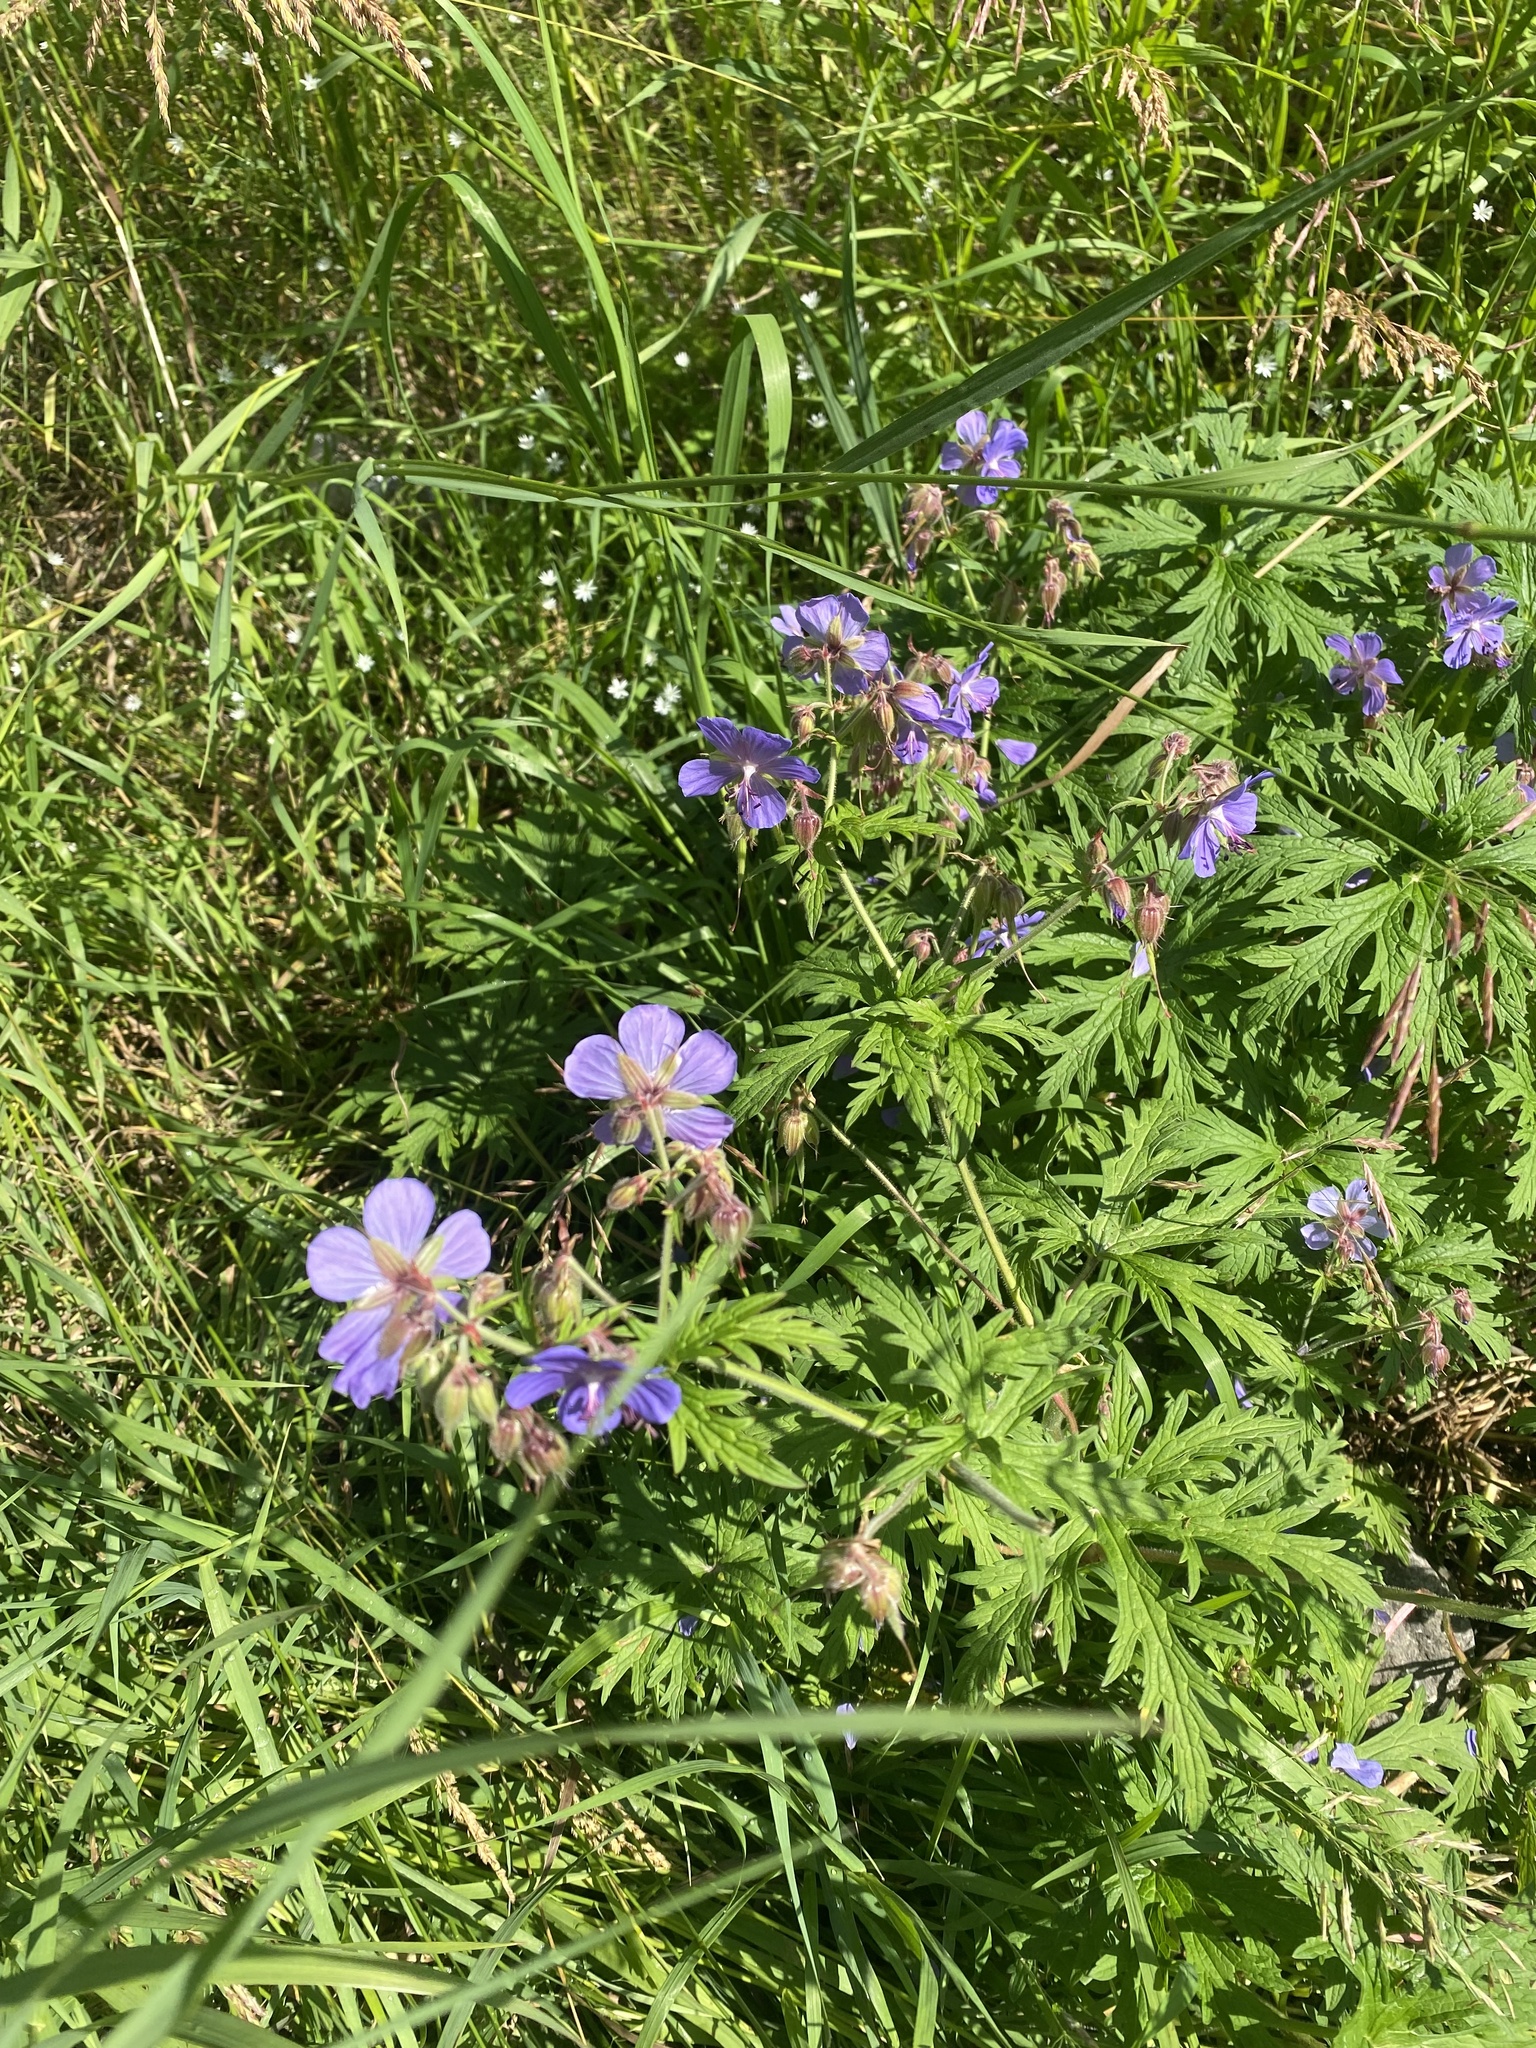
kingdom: Plantae
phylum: Tracheophyta
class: Magnoliopsida
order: Geraniales
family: Geraniaceae
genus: Geranium
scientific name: Geranium pratense
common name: Meadow crane's-bill
